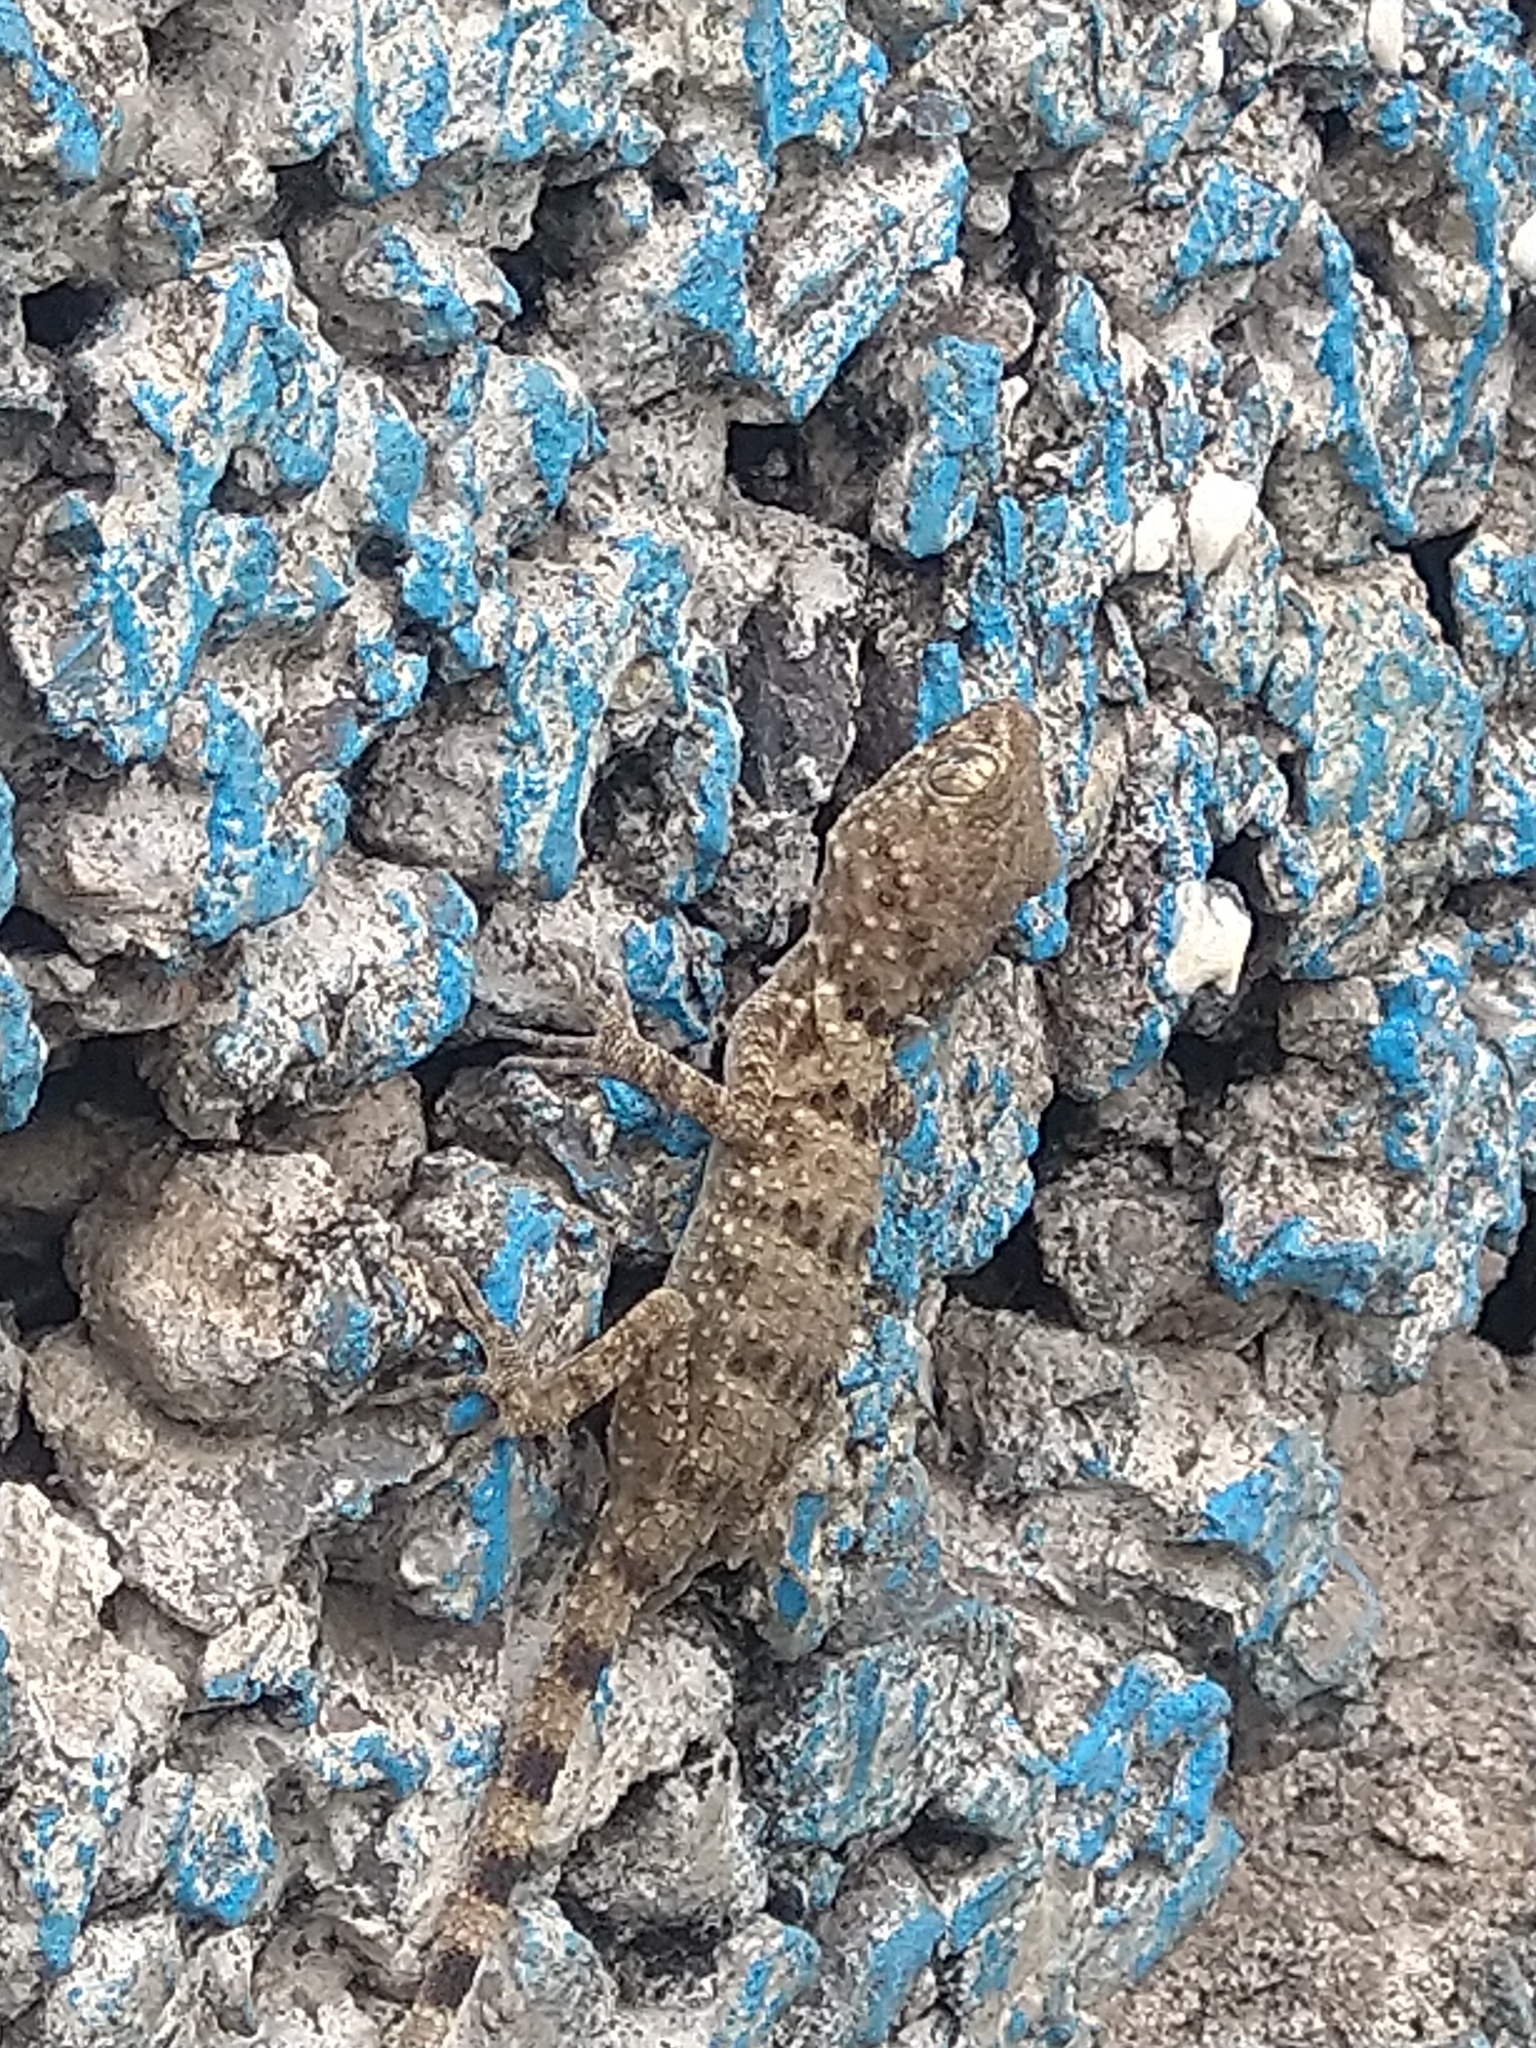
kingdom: Animalia
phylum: Chordata
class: Squamata
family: Gekkonidae
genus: Tenuidactylus
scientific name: Tenuidactylus caspius
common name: Caspian bent-toed gecko
